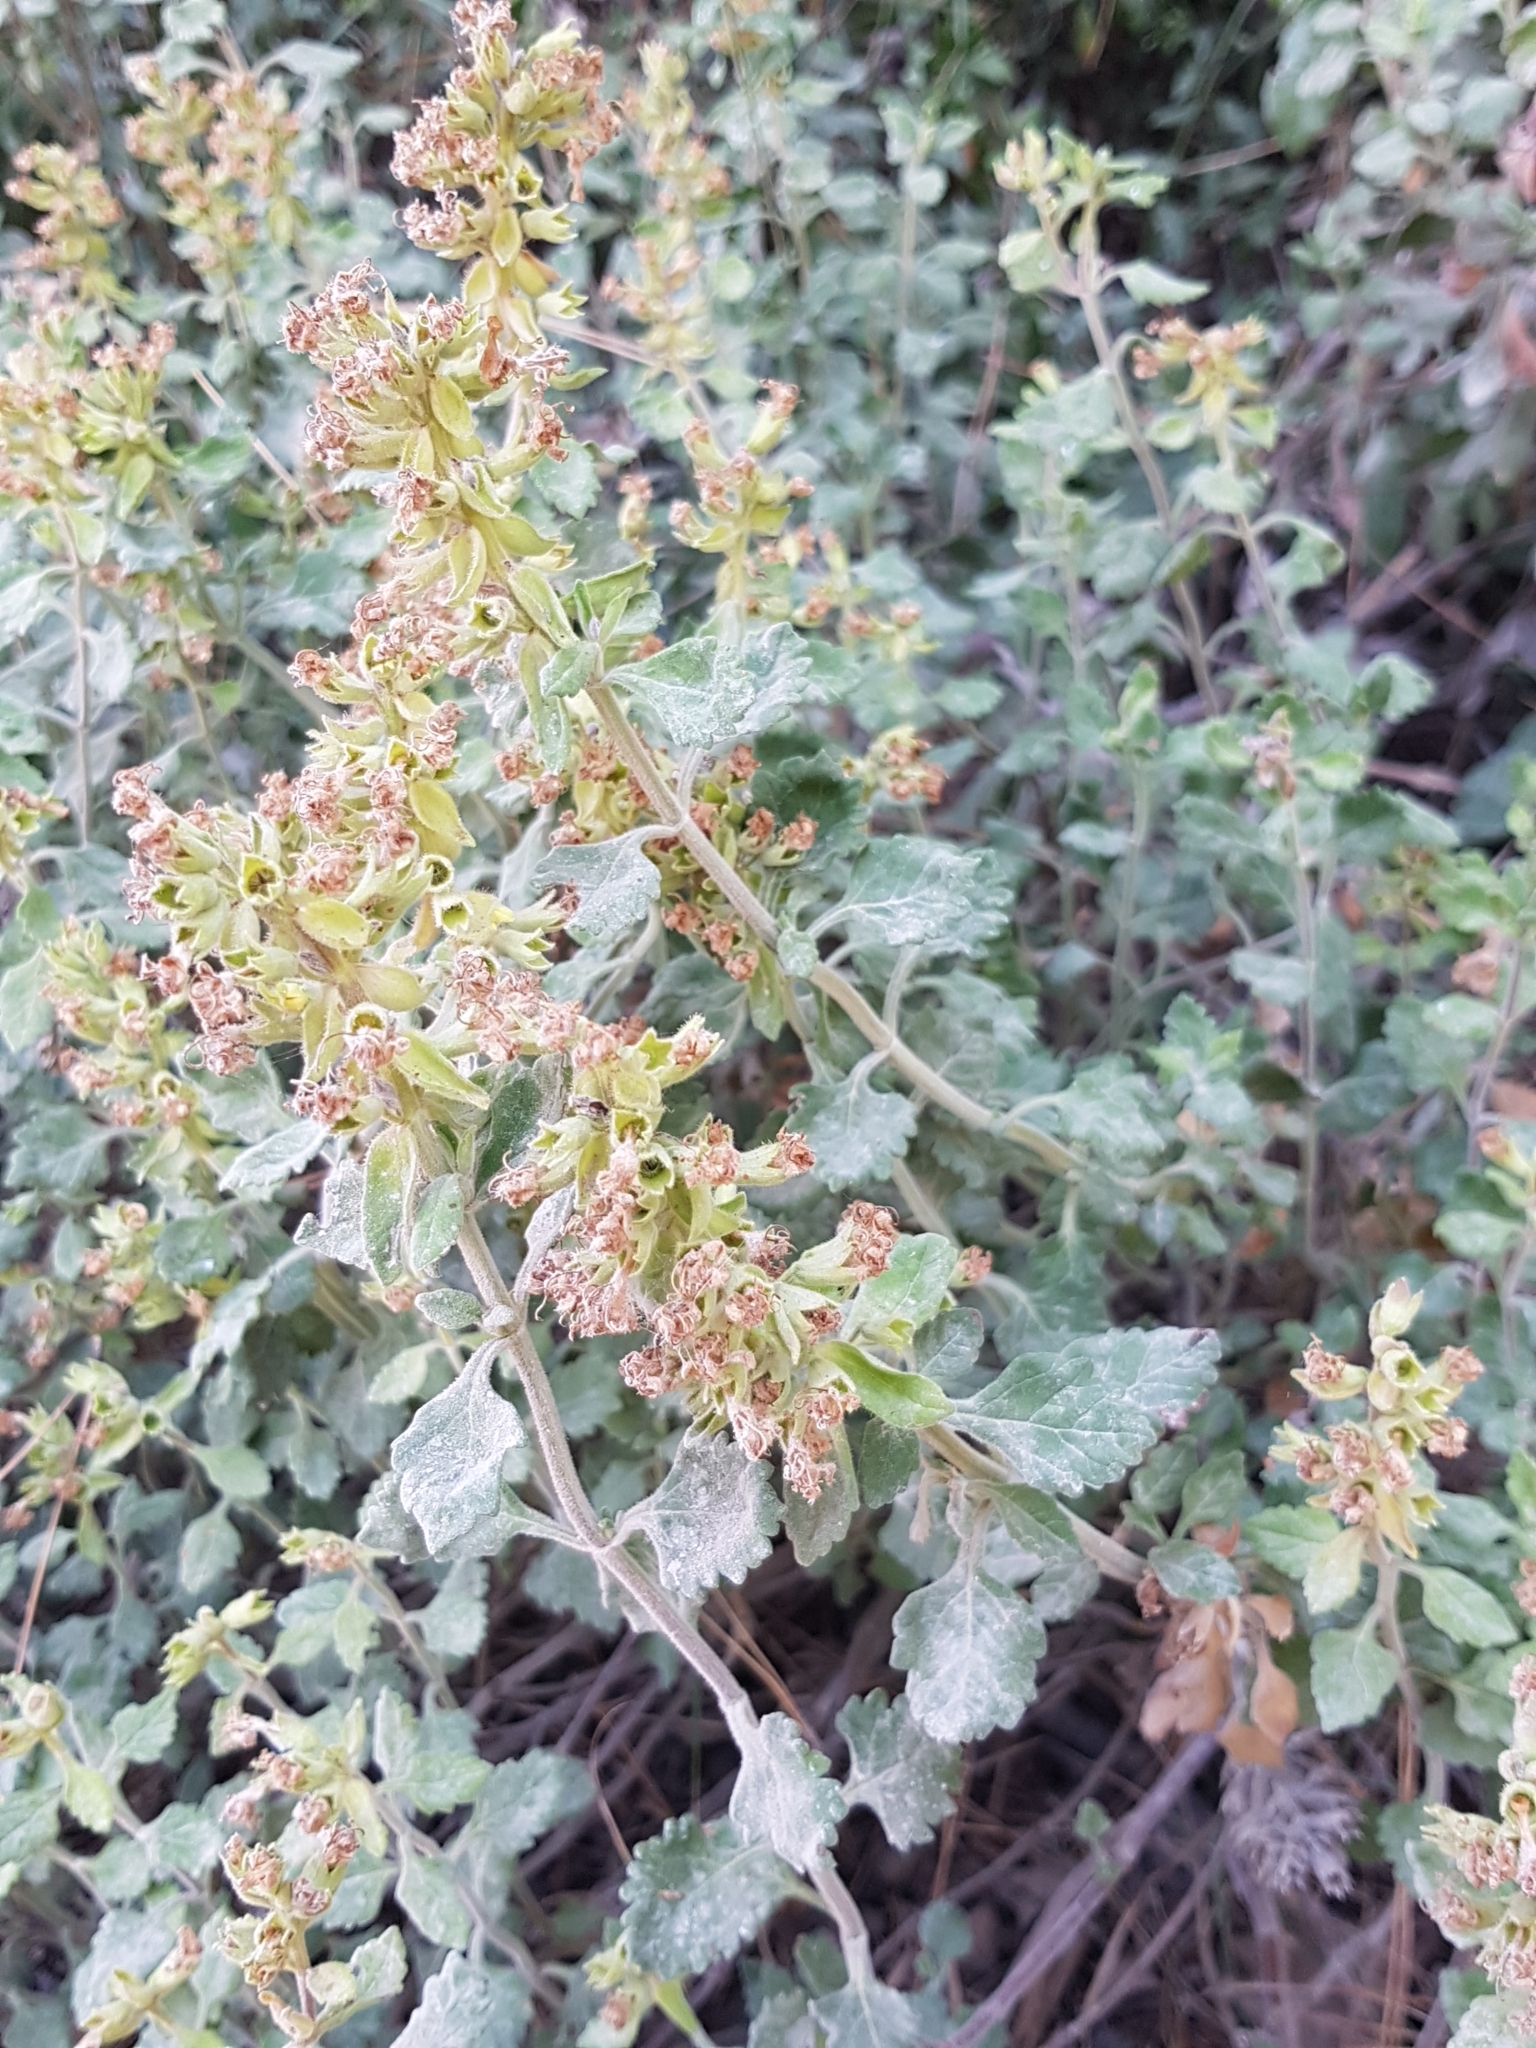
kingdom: Plantae
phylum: Tracheophyta
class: Magnoliopsida
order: Lamiales
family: Lamiaceae
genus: Teucrium
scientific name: Teucrium flavum
